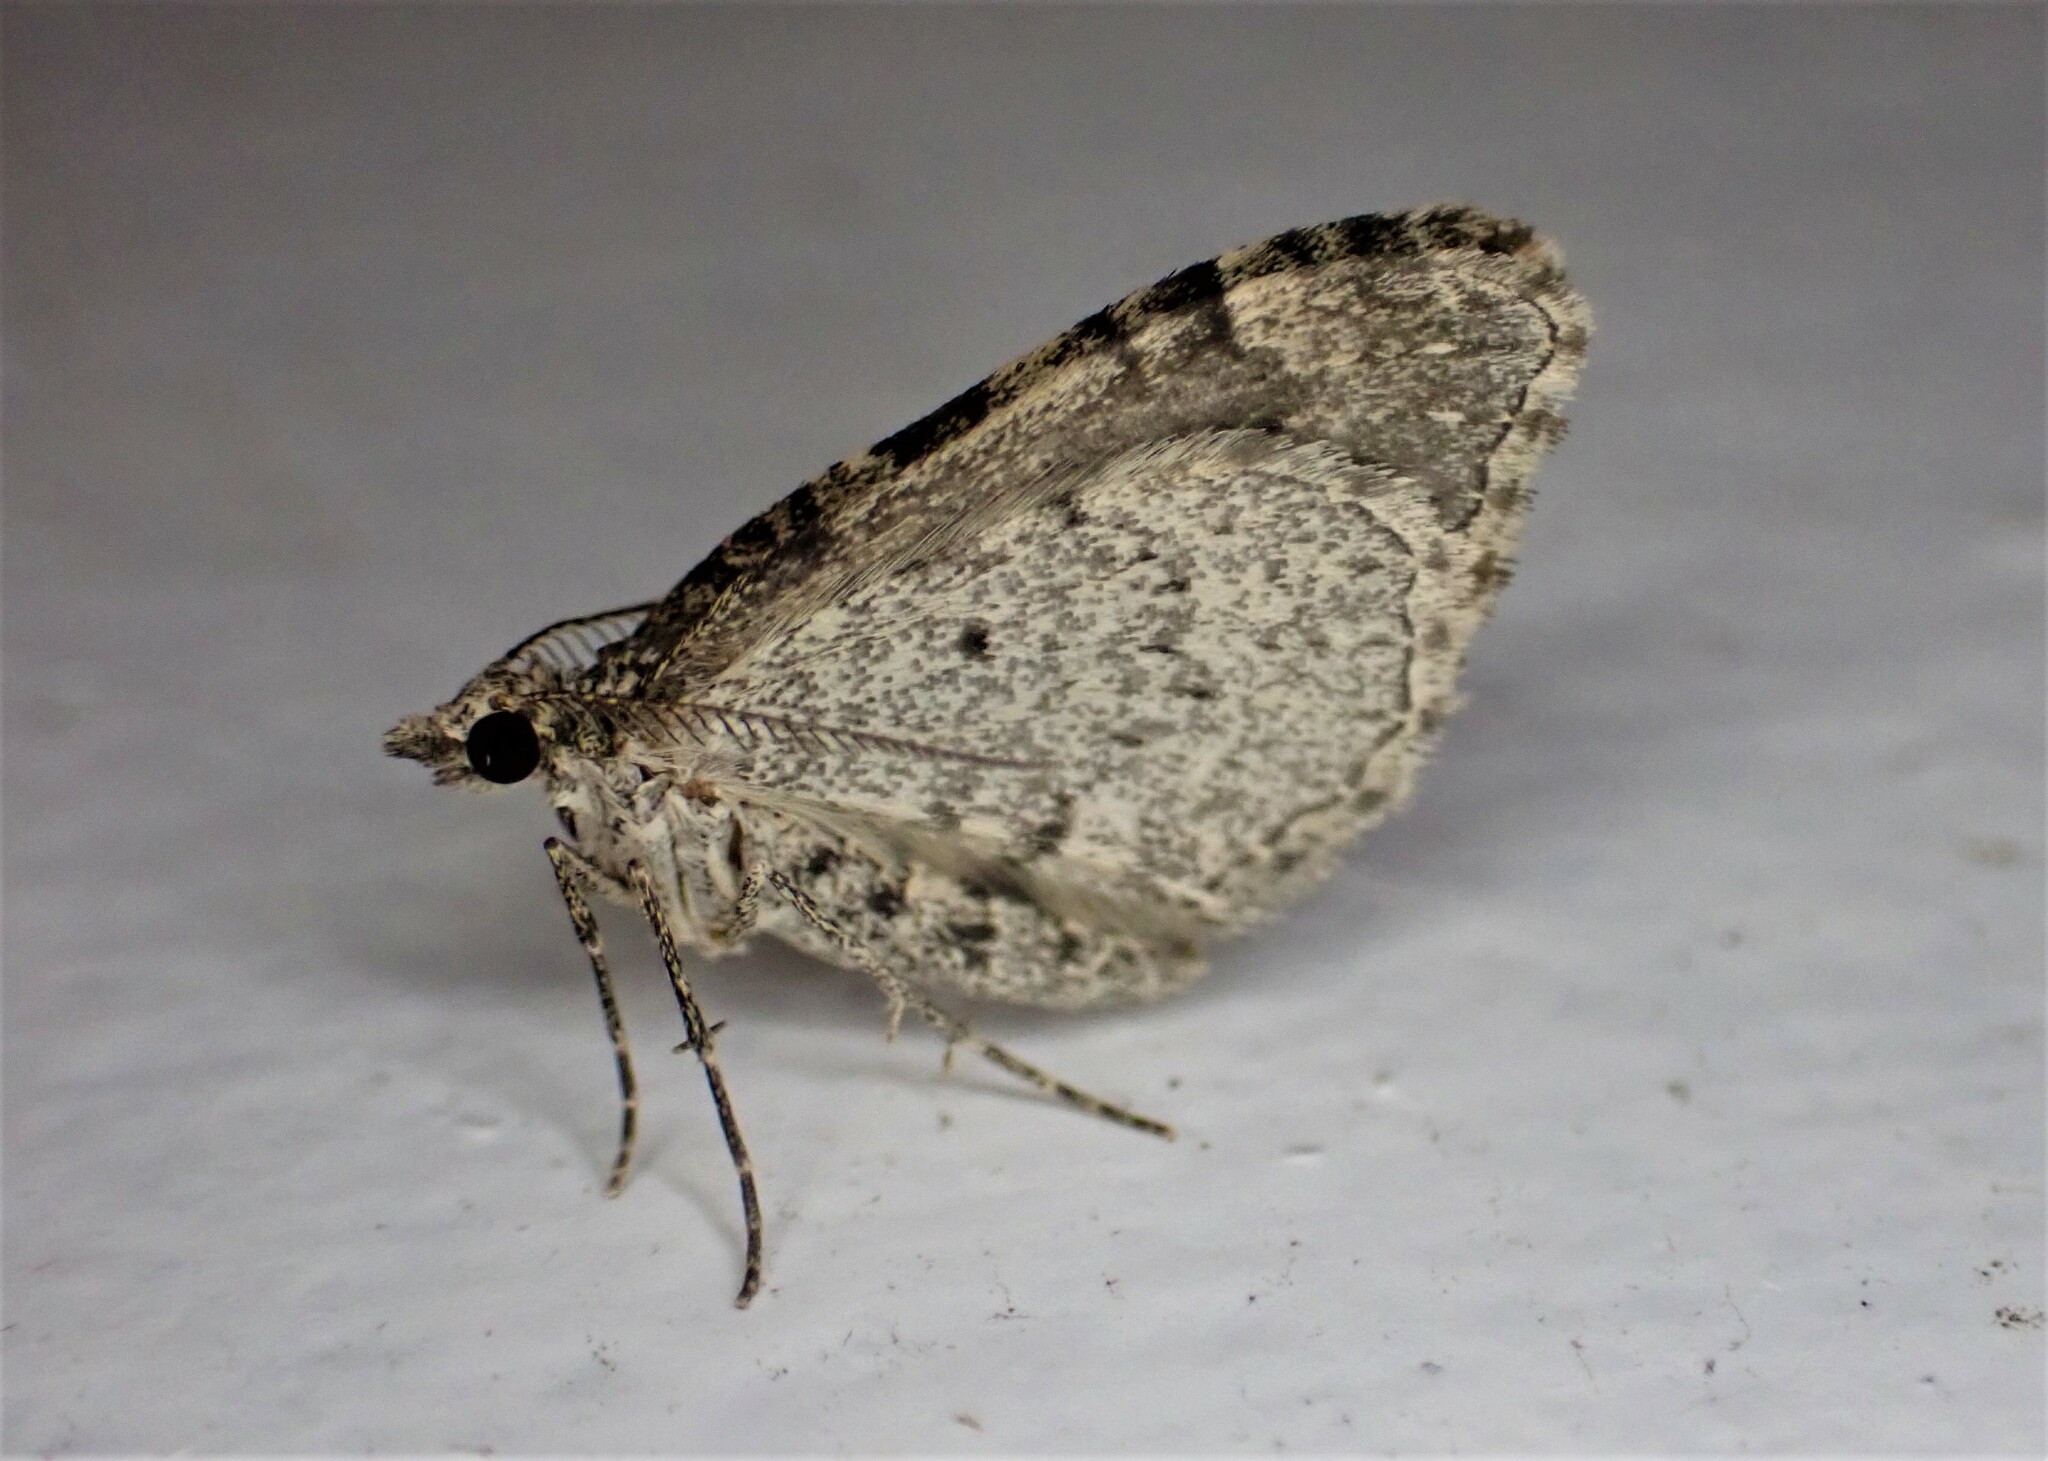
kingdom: Animalia
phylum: Arthropoda
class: Insecta
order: Lepidoptera
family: Geometridae
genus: Helastia
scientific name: Helastia cinerearia
